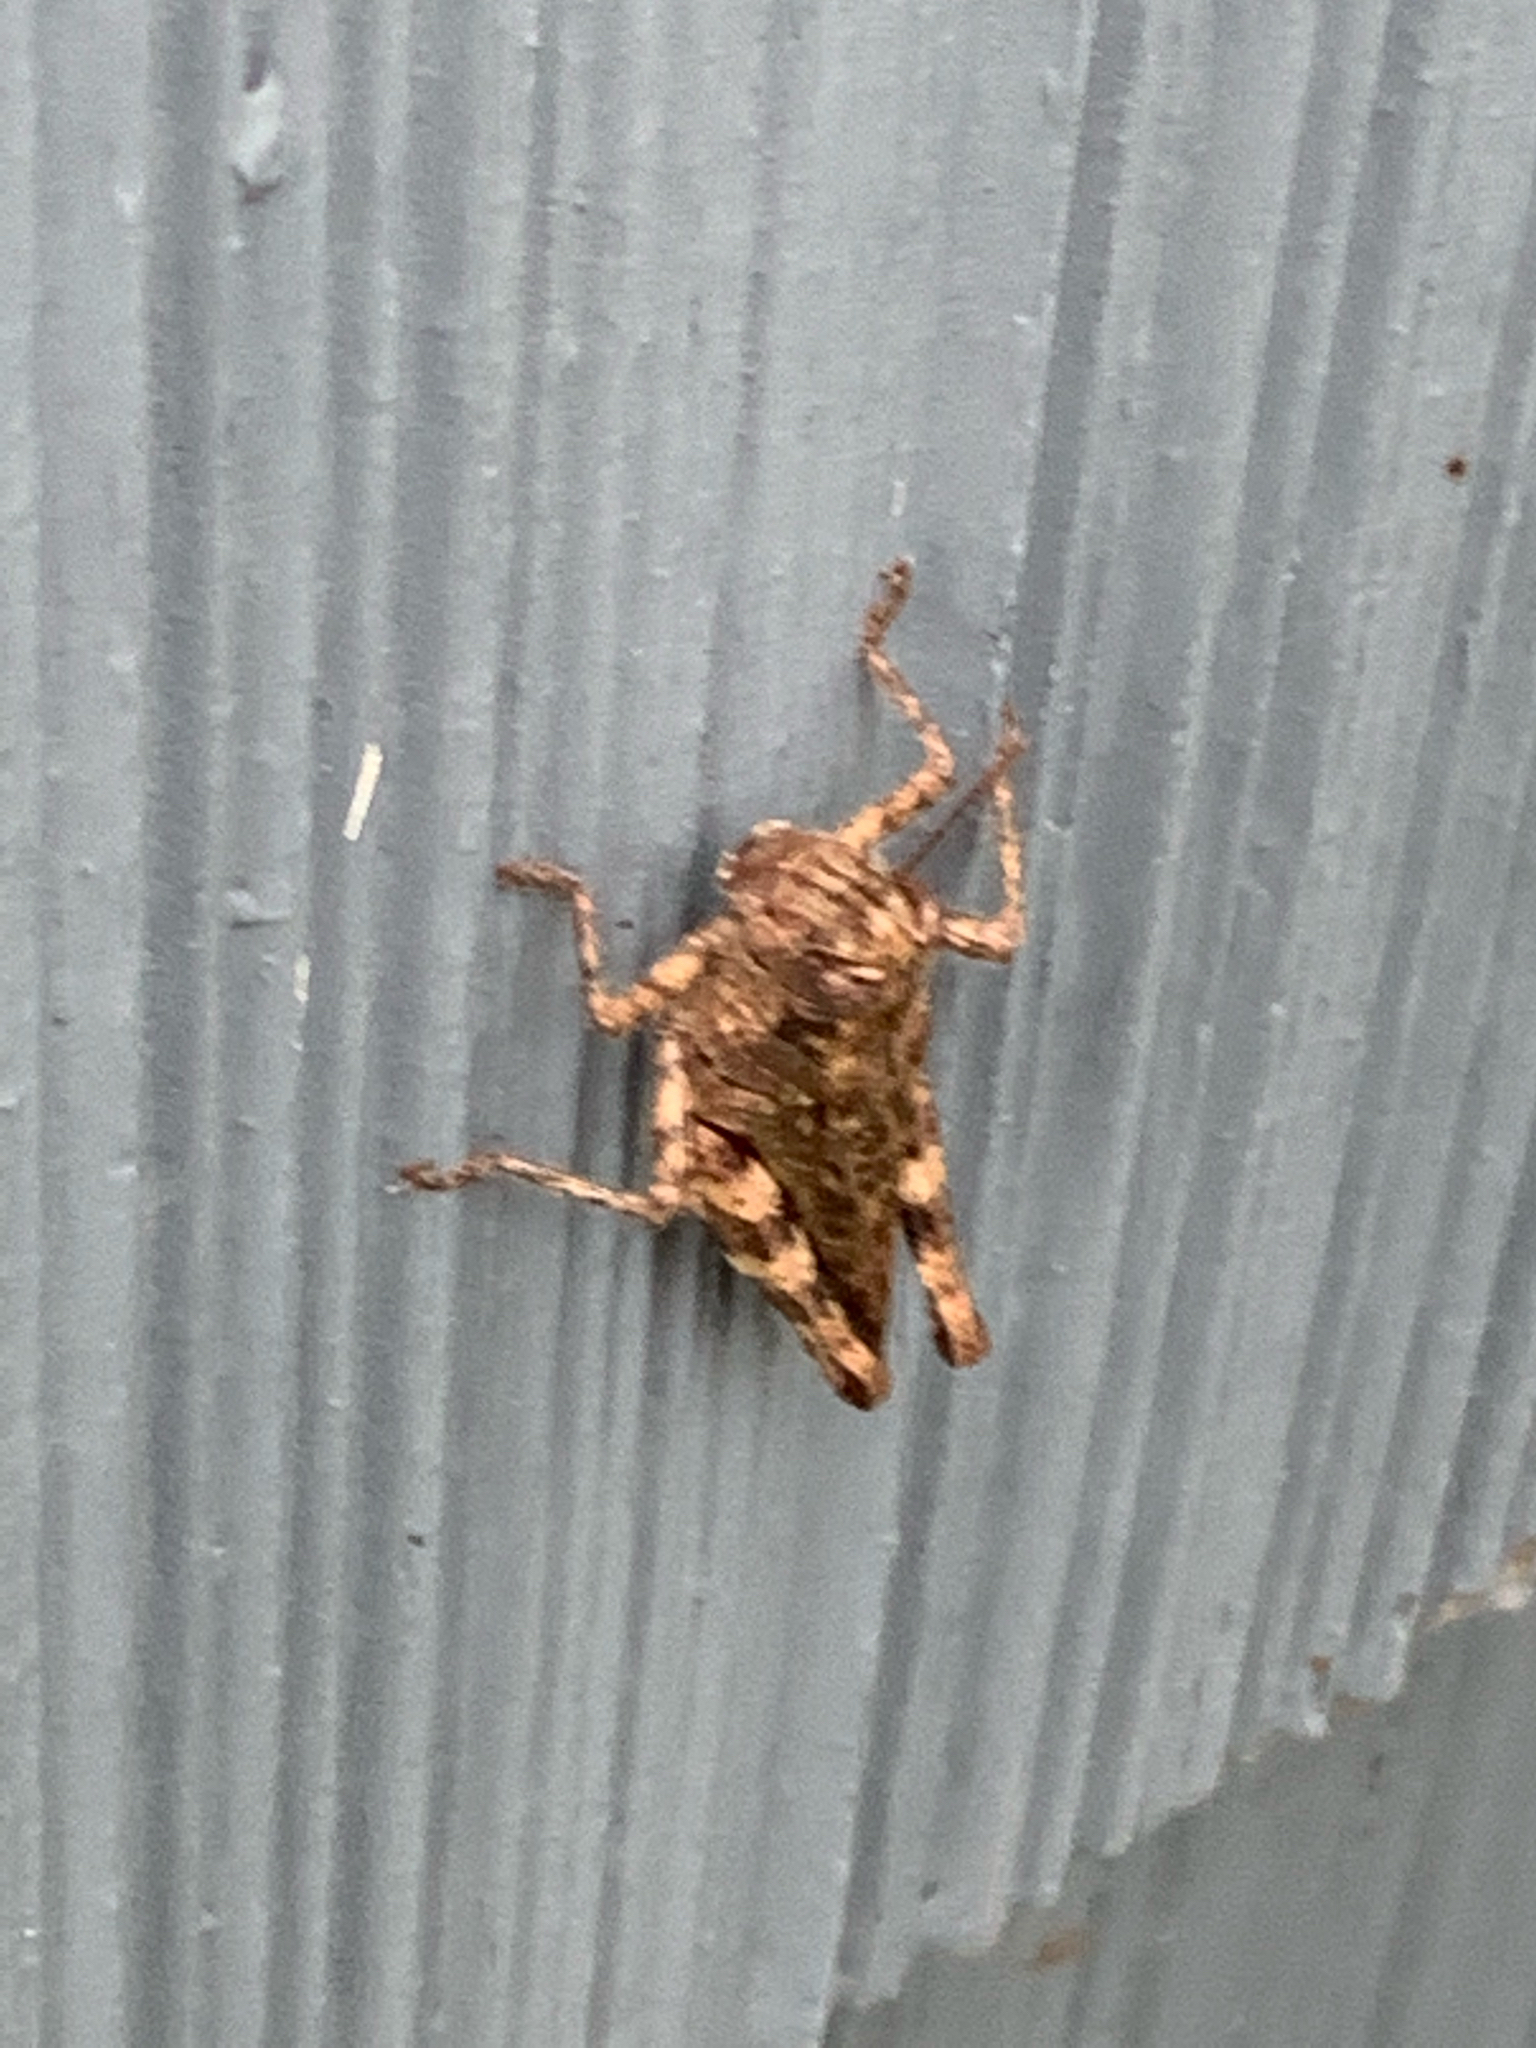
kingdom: Animalia
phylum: Arthropoda
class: Insecta
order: Orthoptera
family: Acrididae
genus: Melanoplus
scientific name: Melanoplus punctulatus
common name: Pine-tree spur-throat grasshopper
